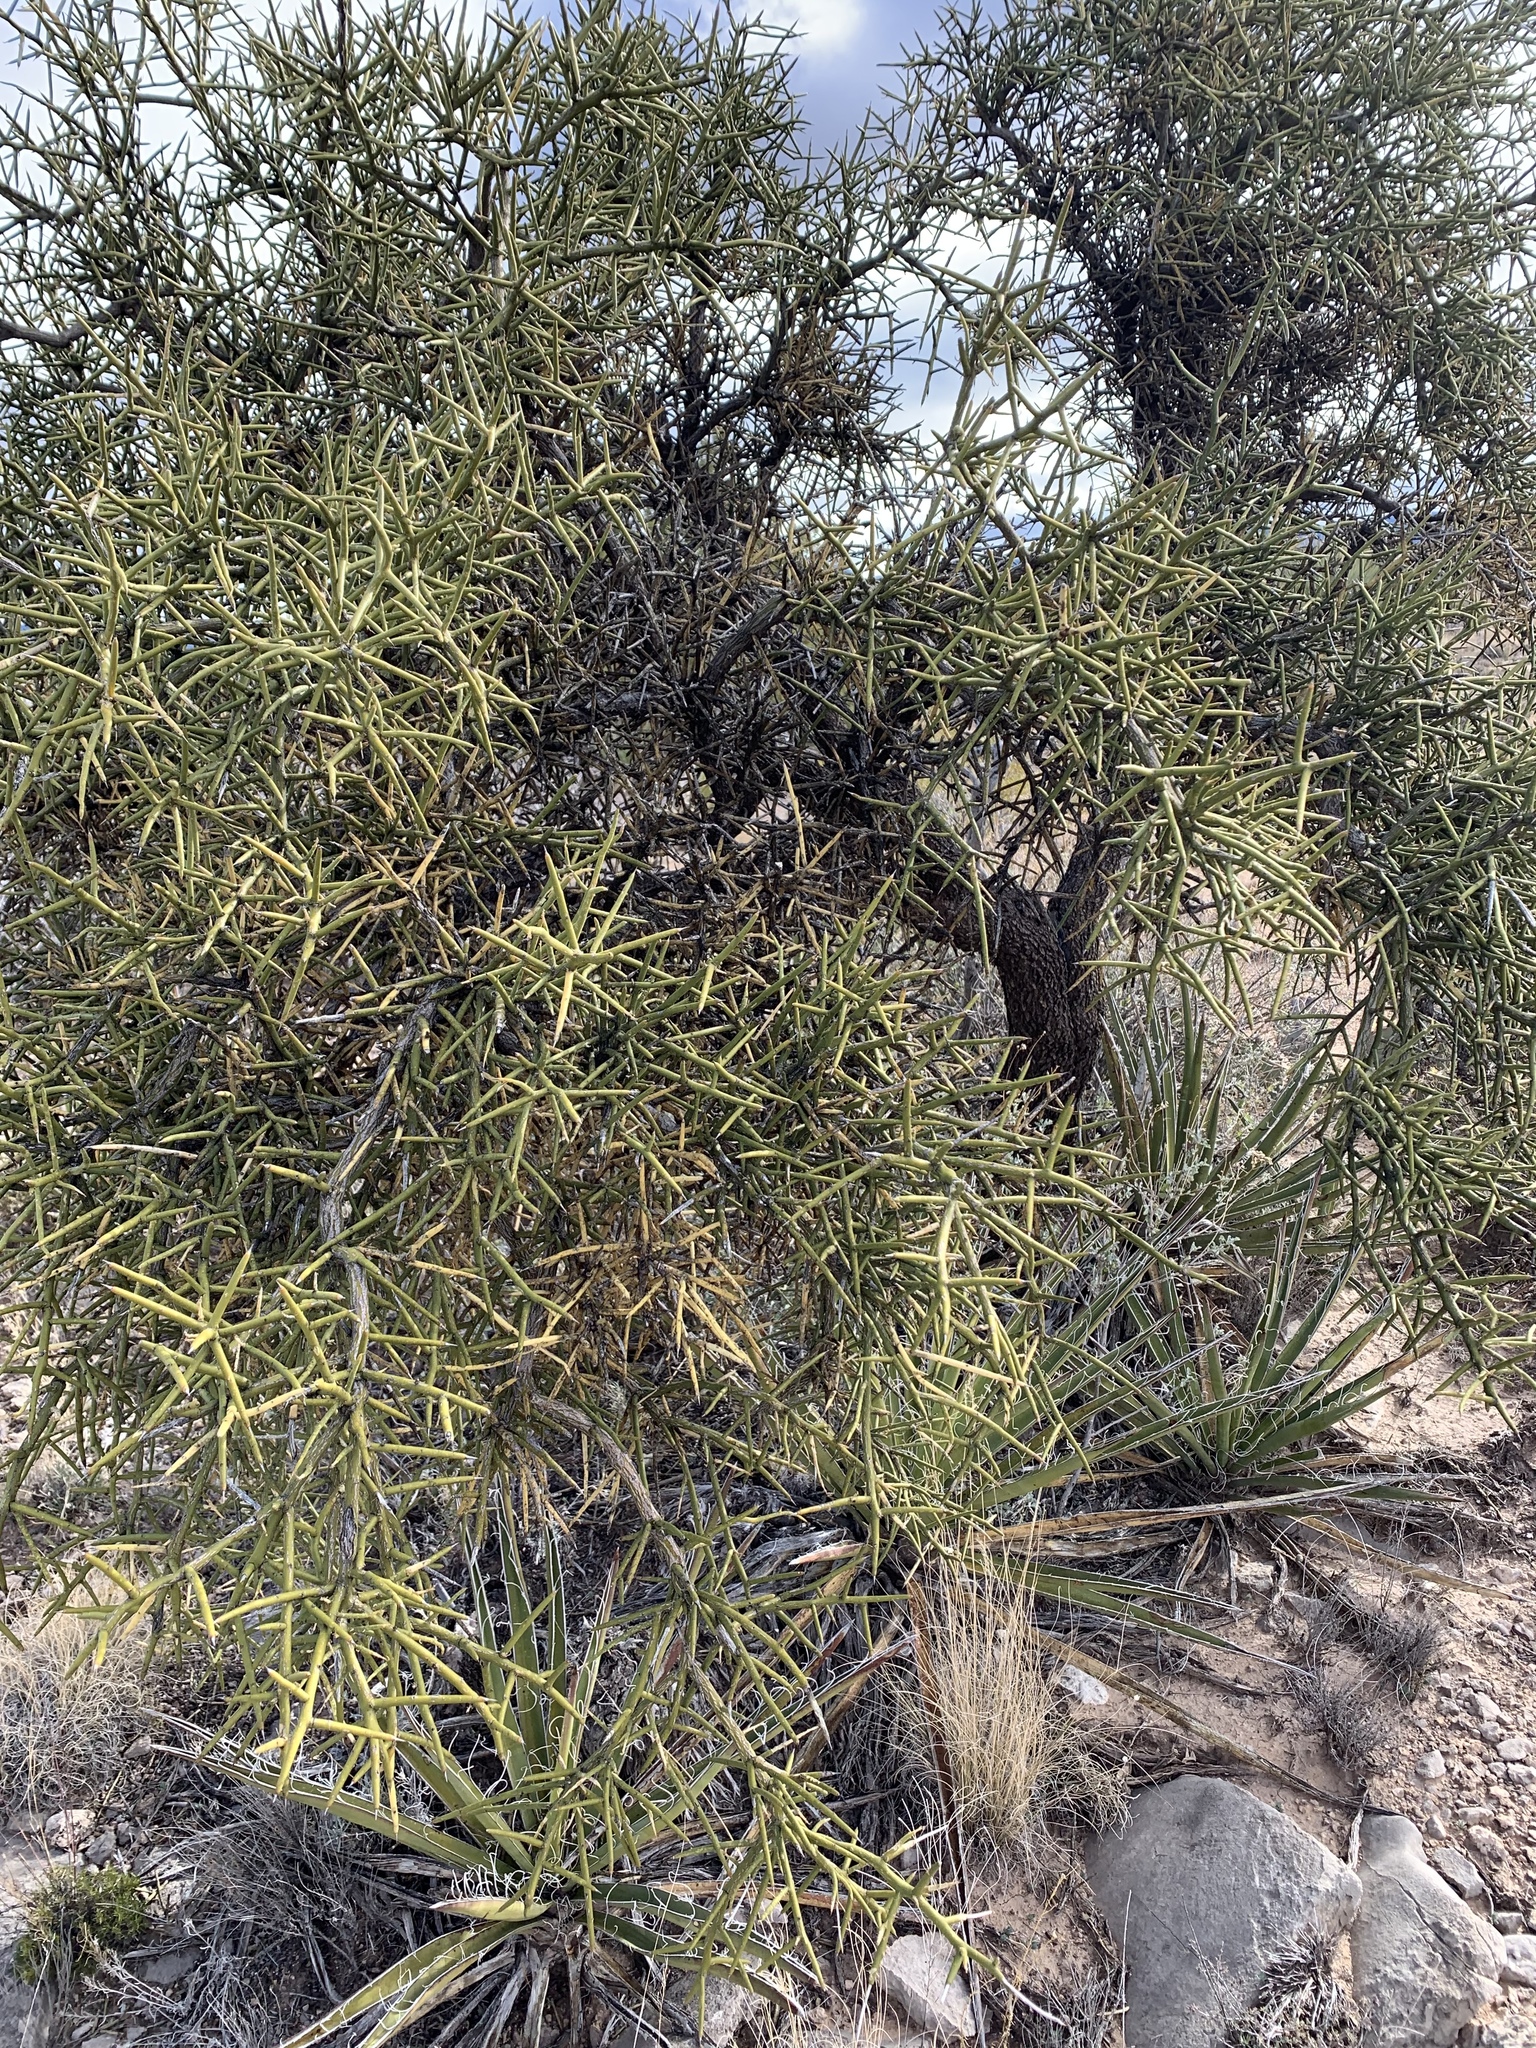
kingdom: Plantae
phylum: Tracheophyta
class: Magnoliopsida
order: Brassicales
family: Koeberliniaceae
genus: Koeberlinia
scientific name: Koeberlinia spinosa
